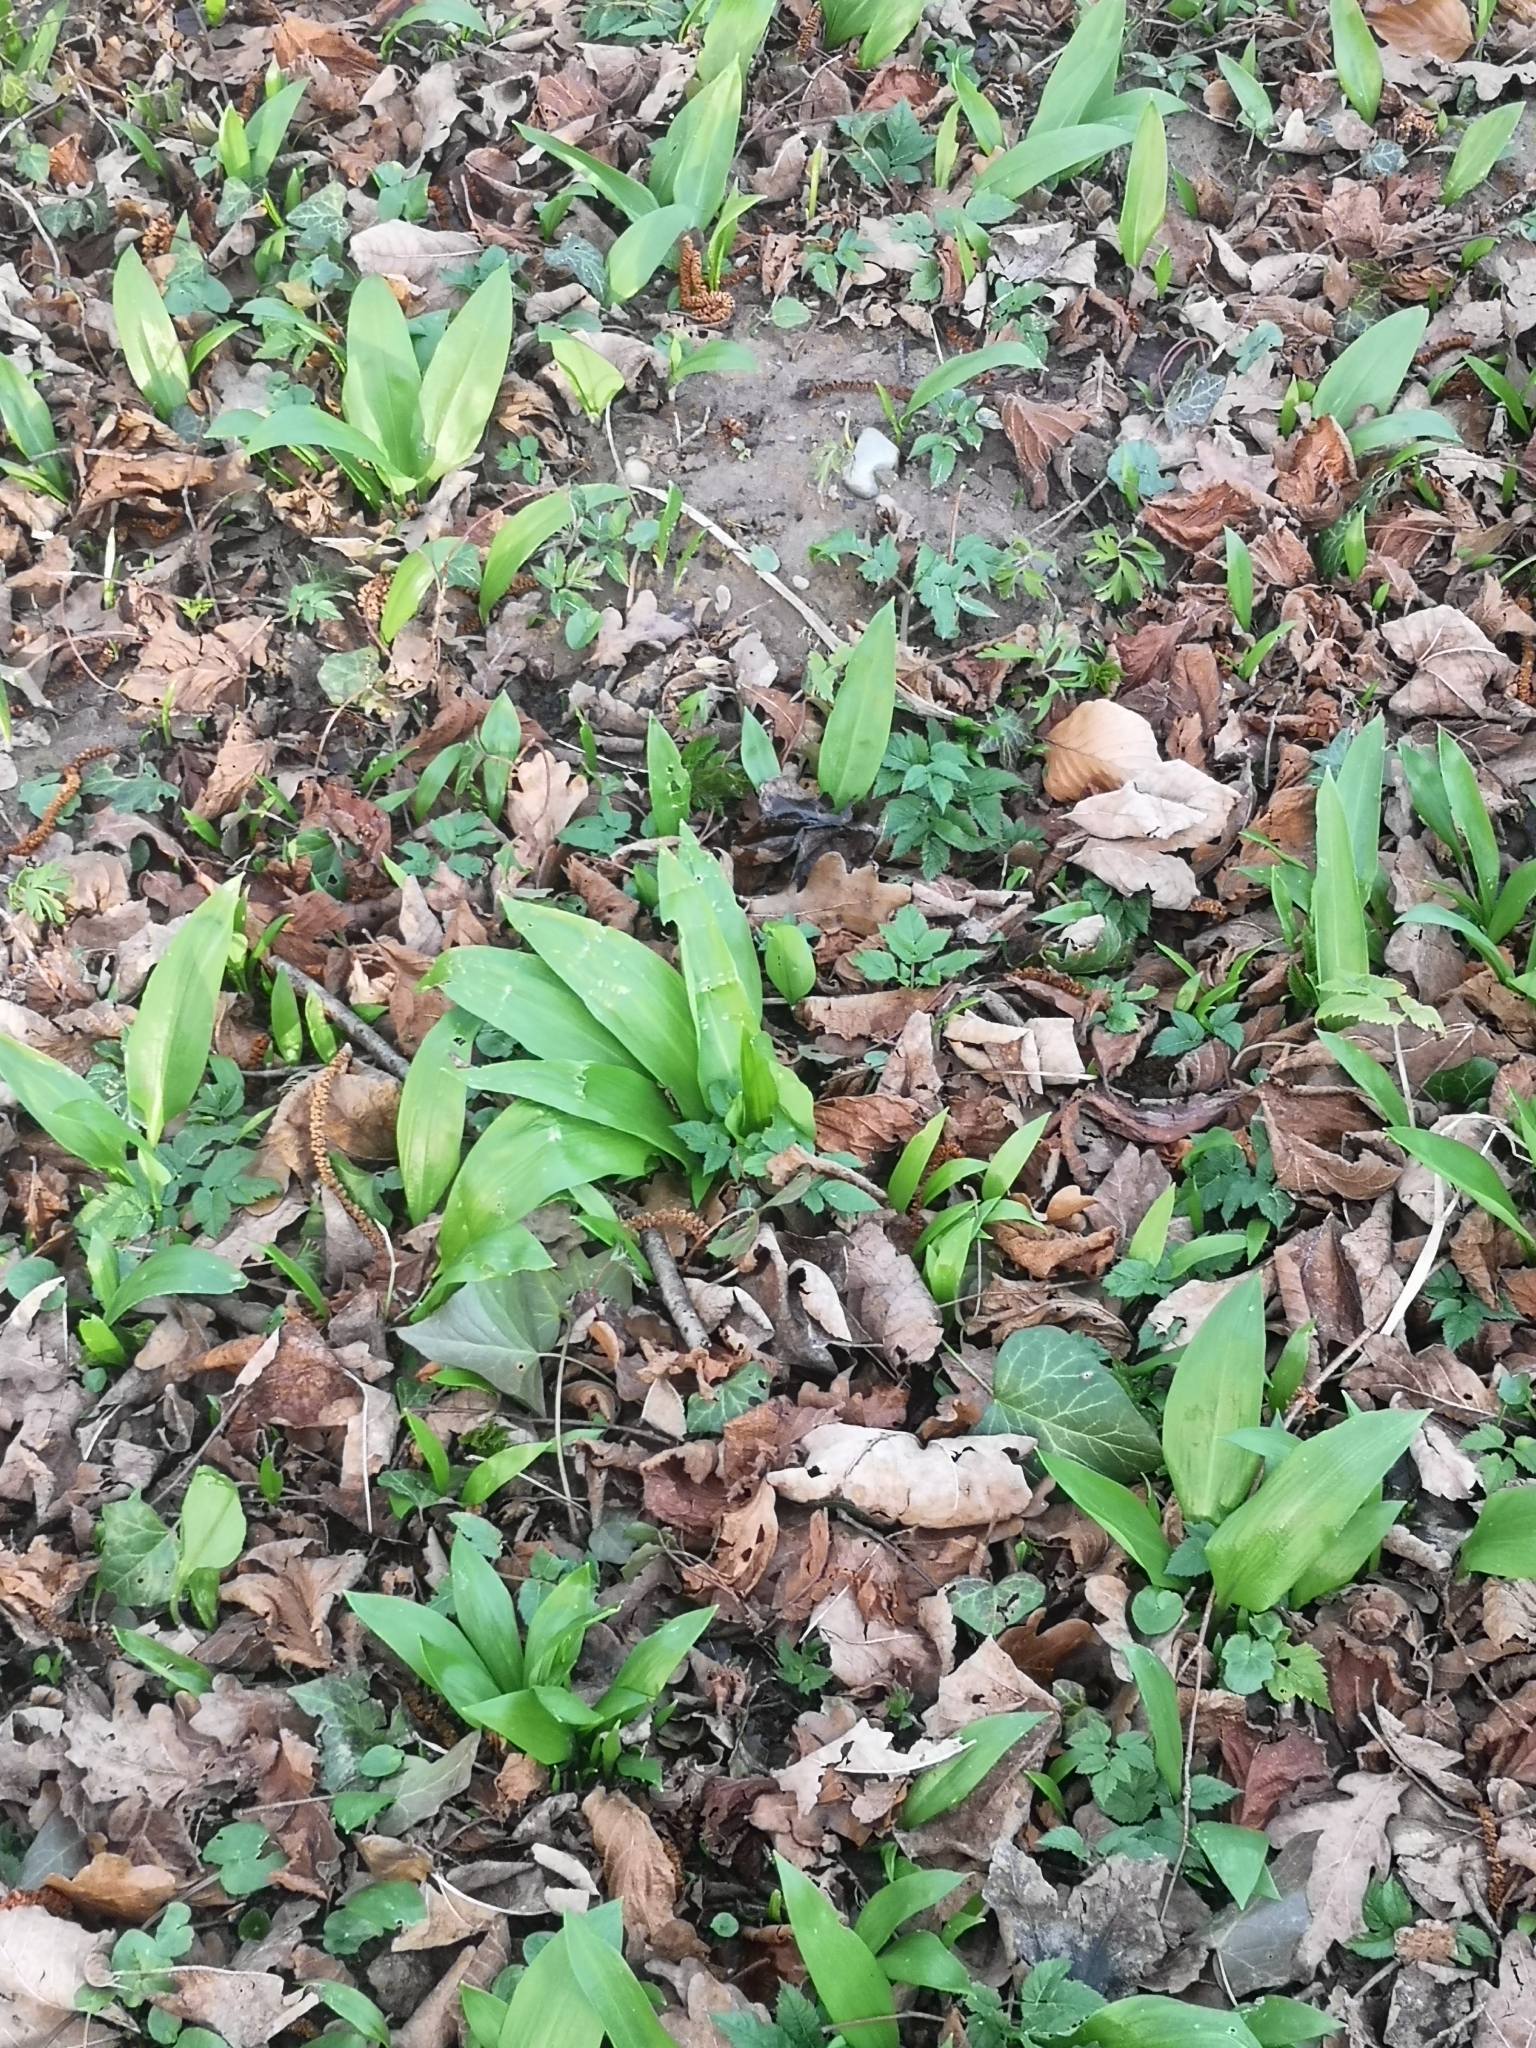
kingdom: Plantae
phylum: Tracheophyta
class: Liliopsida
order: Asparagales
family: Amaryllidaceae
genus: Allium
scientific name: Allium ursinum
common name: Ramsons
